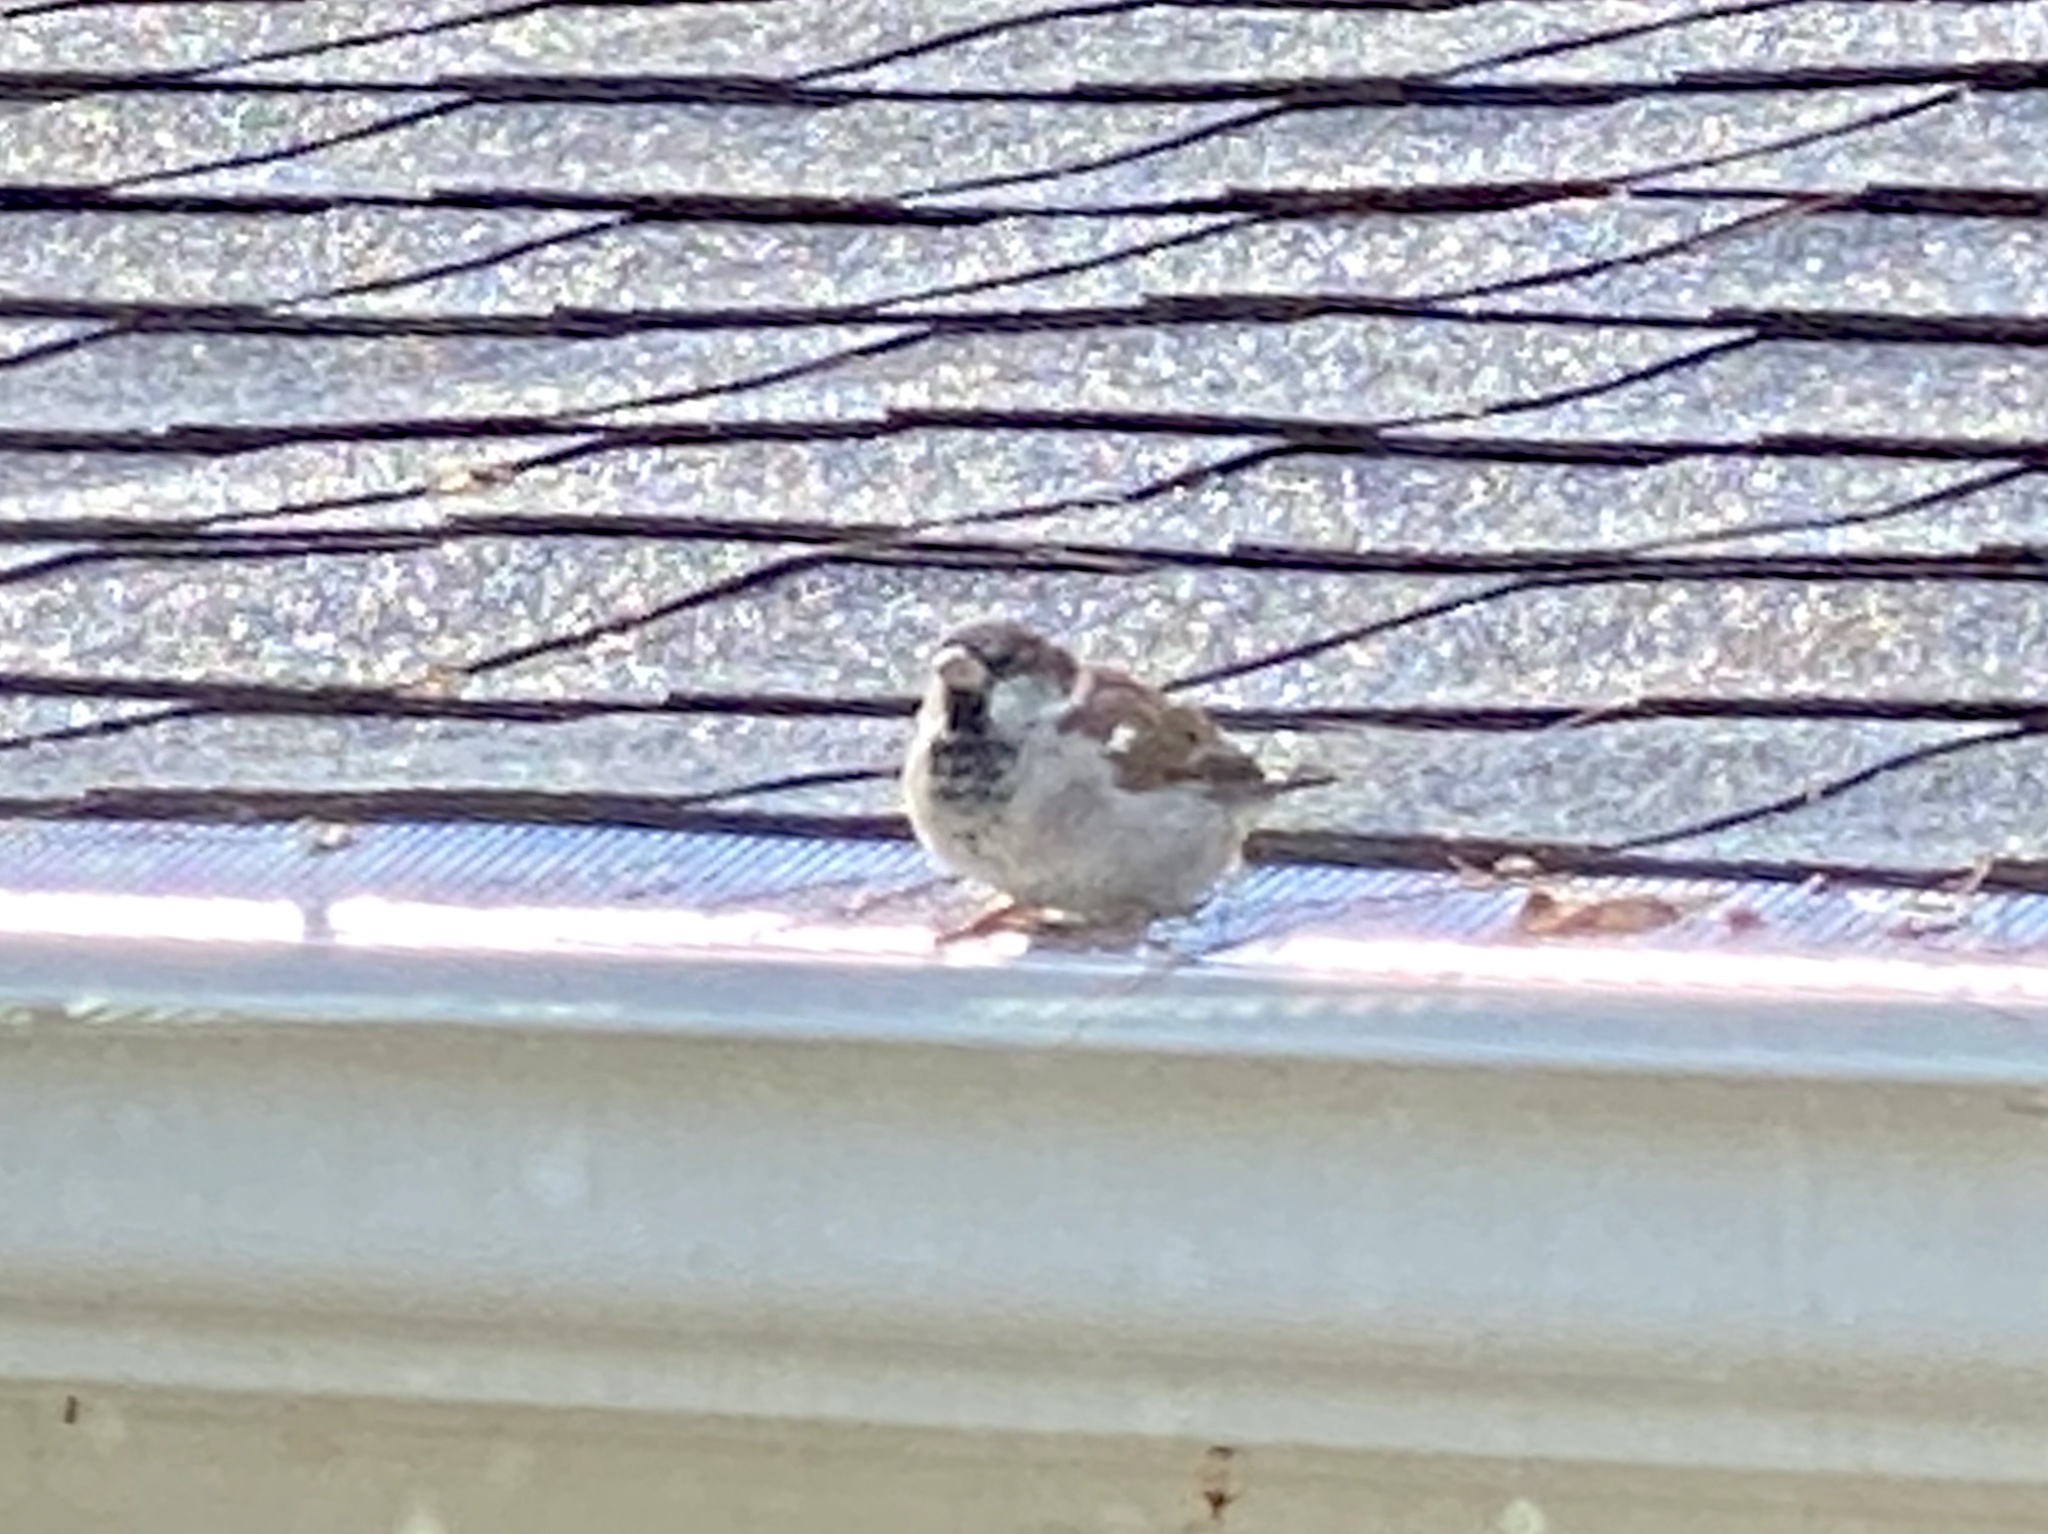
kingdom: Animalia
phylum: Chordata
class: Aves
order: Passeriformes
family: Passeridae
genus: Passer
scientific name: Passer domesticus
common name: House sparrow
